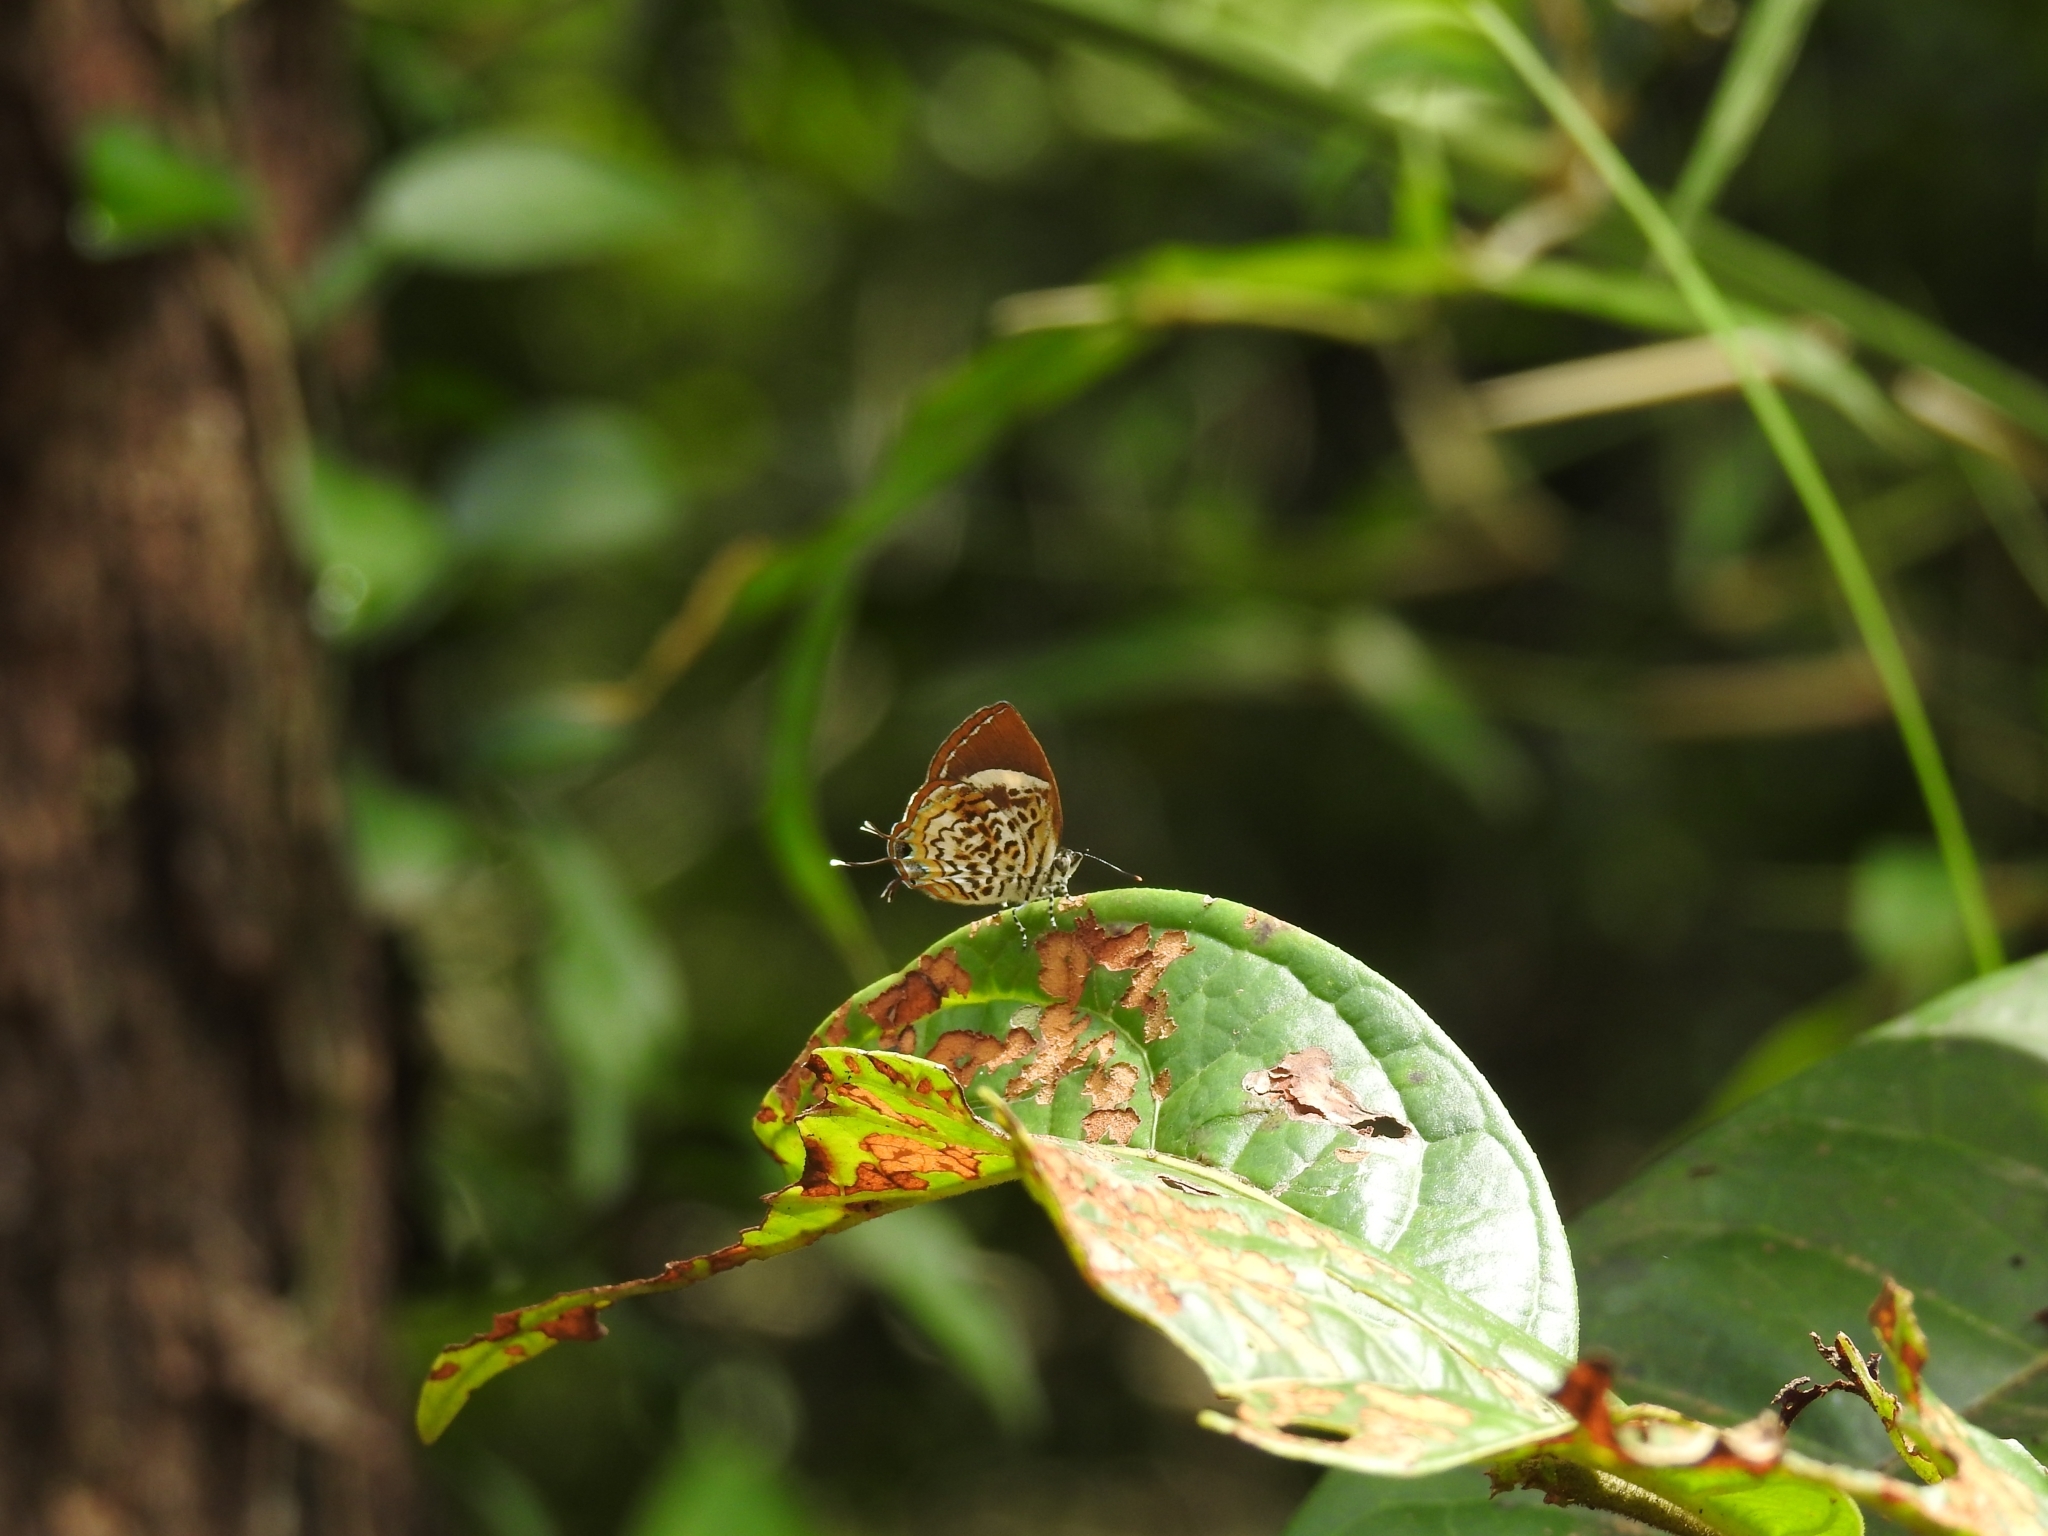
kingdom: Animalia
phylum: Arthropoda
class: Insecta
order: Lepidoptera
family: Lycaenidae
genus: Rathinda
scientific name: Rathinda amor
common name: Monkey puzzle
